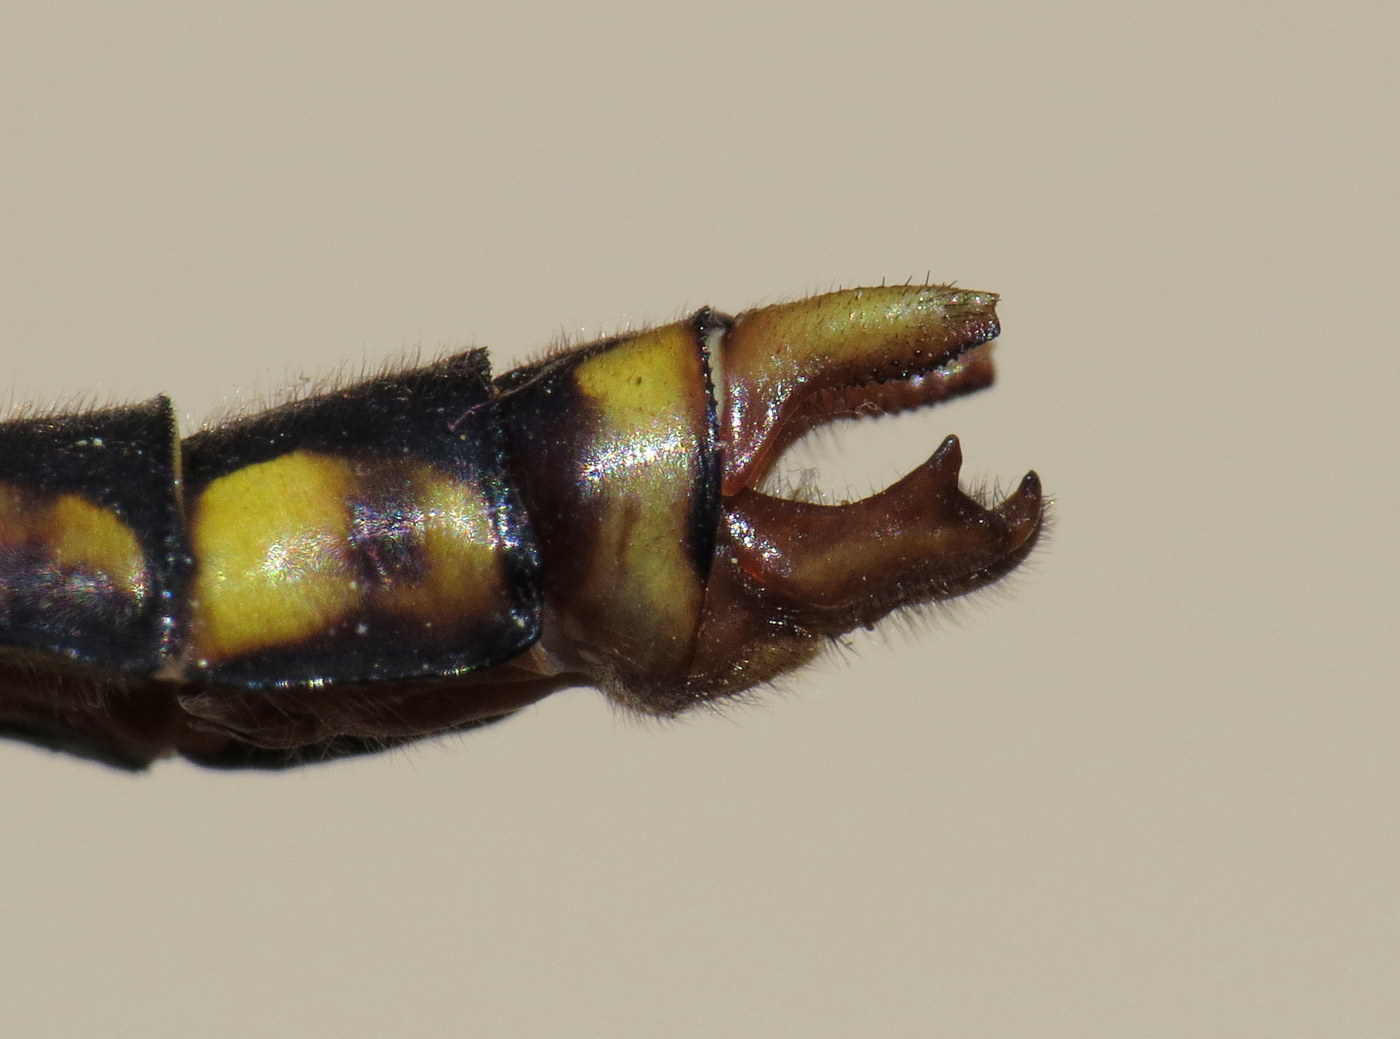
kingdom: Animalia
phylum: Arthropoda
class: Insecta
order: Odonata
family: Gomphidae
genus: Ophiogomphus
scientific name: Ophiogomphus mainensis
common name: Maine snaketail
